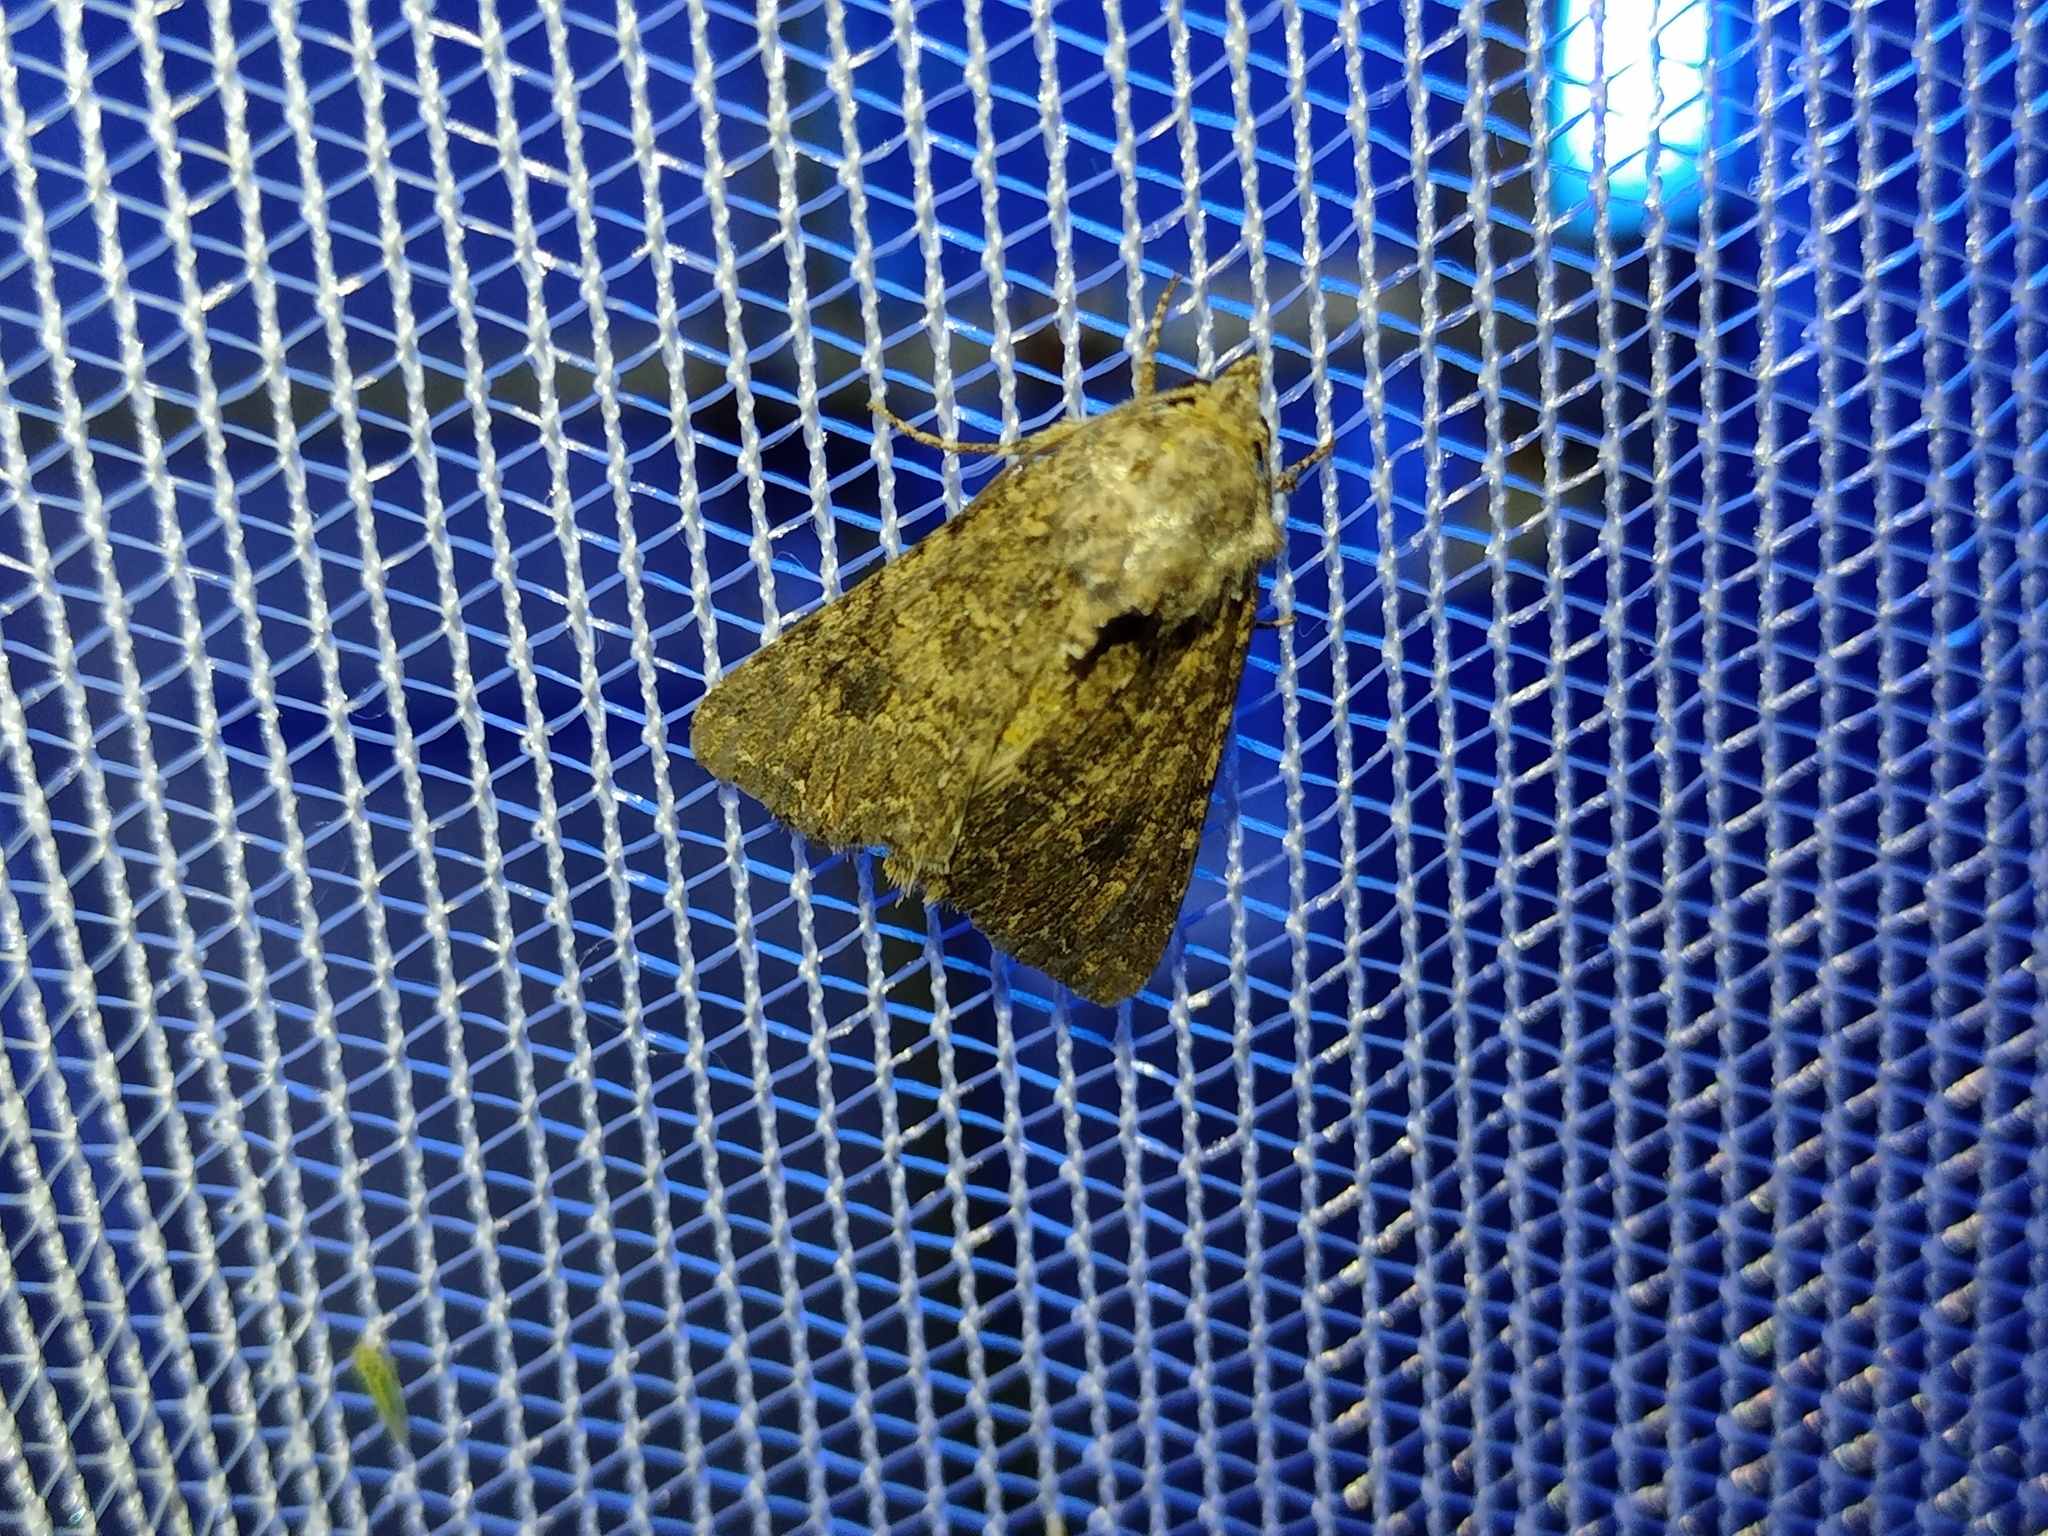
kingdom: Animalia
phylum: Arthropoda
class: Insecta
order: Lepidoptera
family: Noctuidae
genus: Anarta
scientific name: Anarta trifolii
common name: Clover cutworm moth
